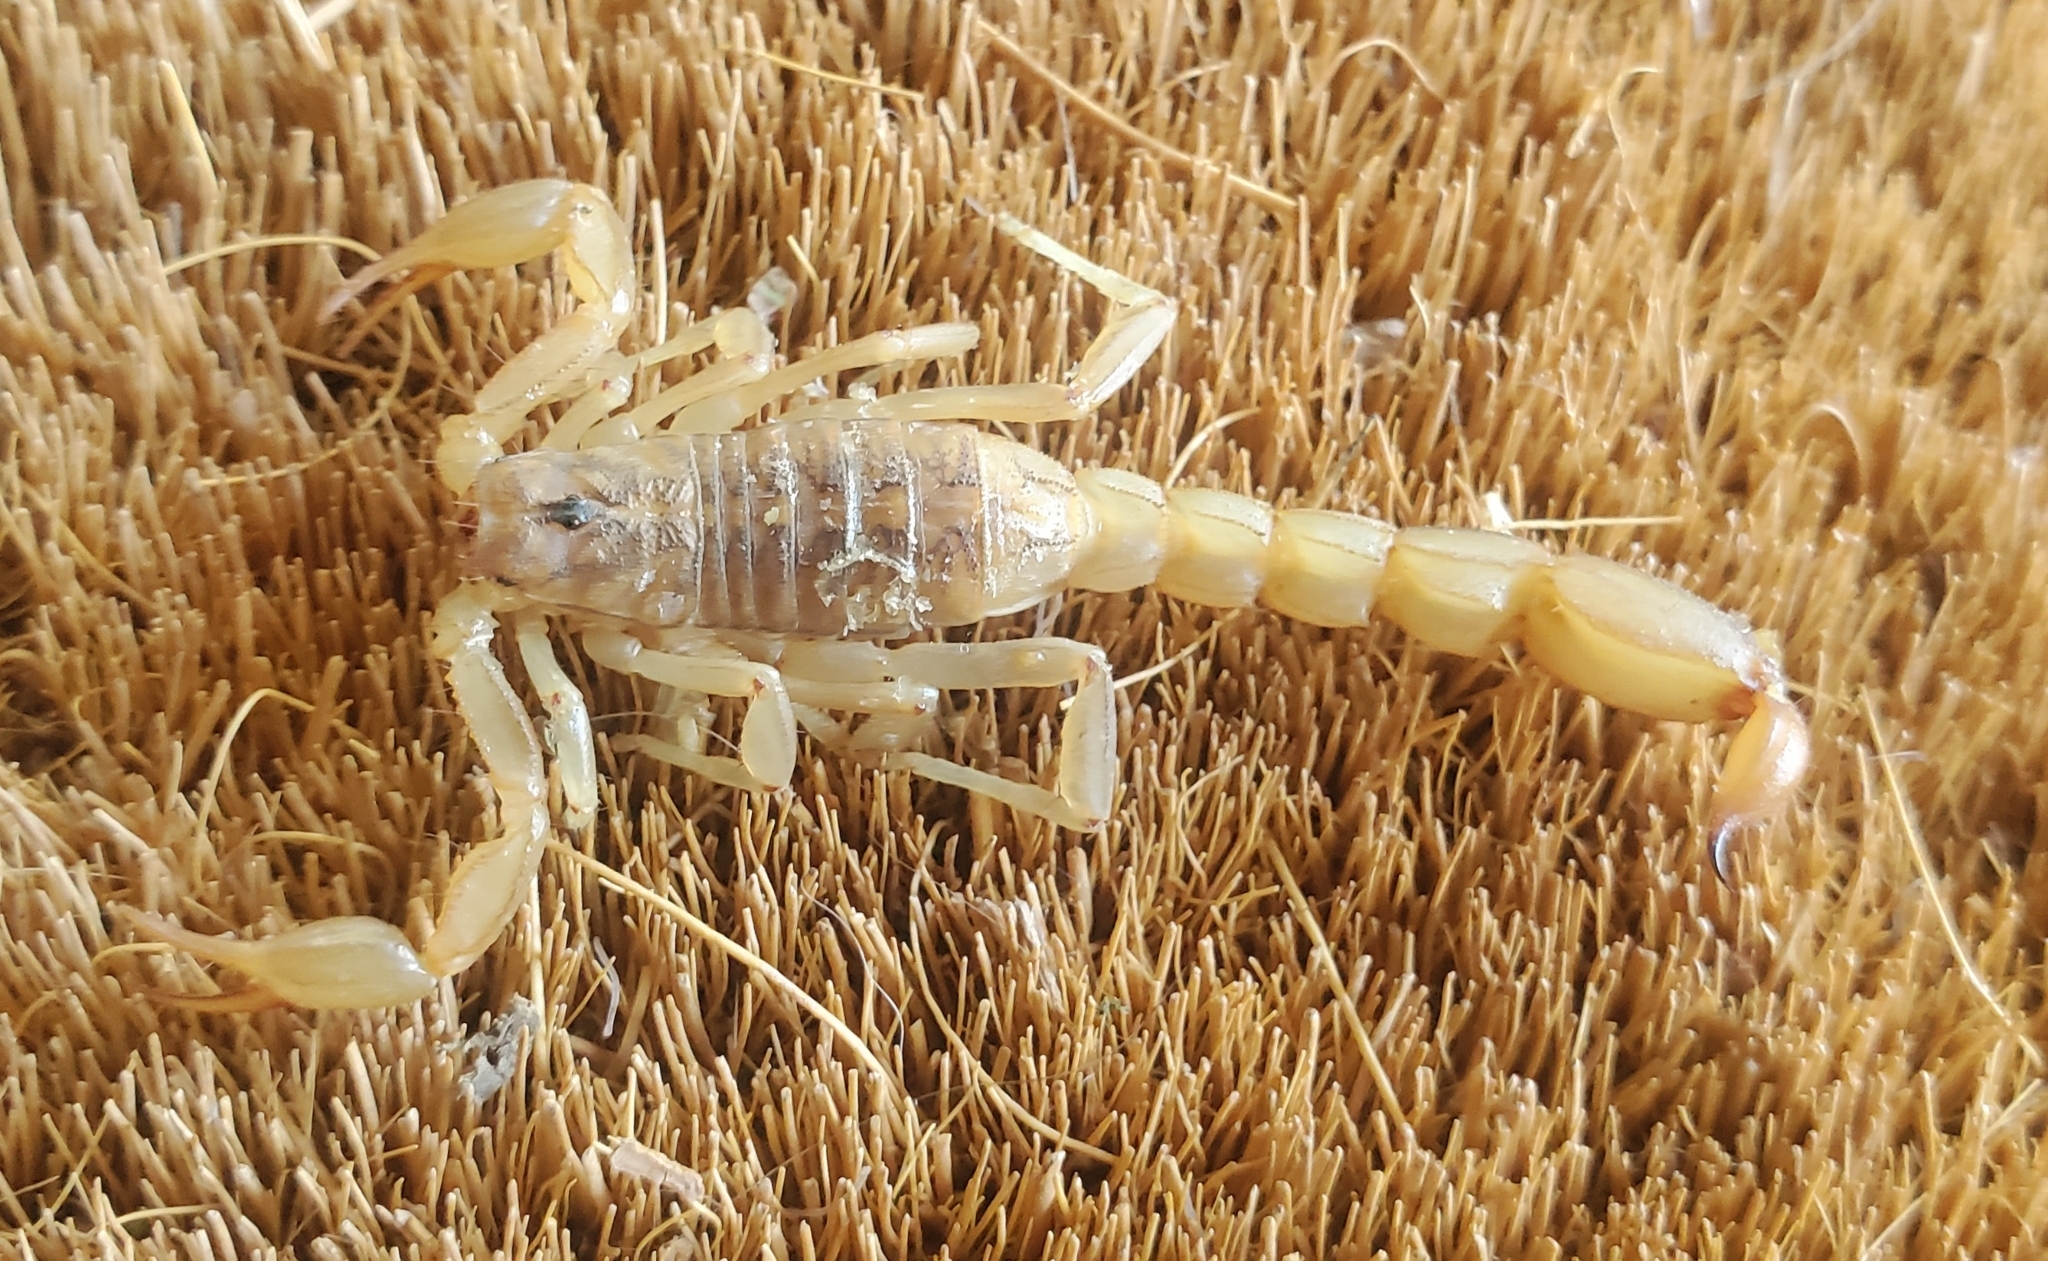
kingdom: Animalia
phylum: Arthropoda
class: Arachnida
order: Scorpiones
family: Vaejovidae
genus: Paravaejovis
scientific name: Paravaejovis spinigerus
